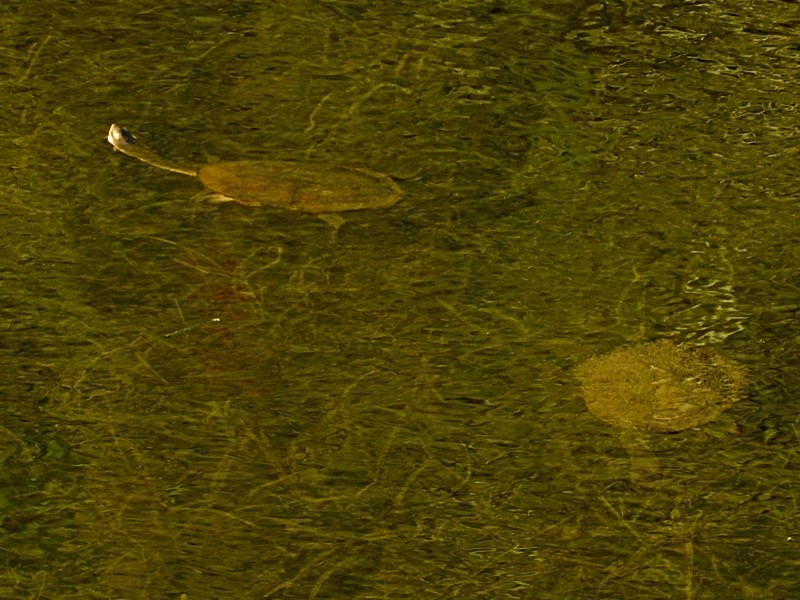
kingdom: Animalia
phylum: Chordata
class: Testudines
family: Chelidae
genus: Chelodina
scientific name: Chelodina longicollis
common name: Eastern snake-necked turtle
